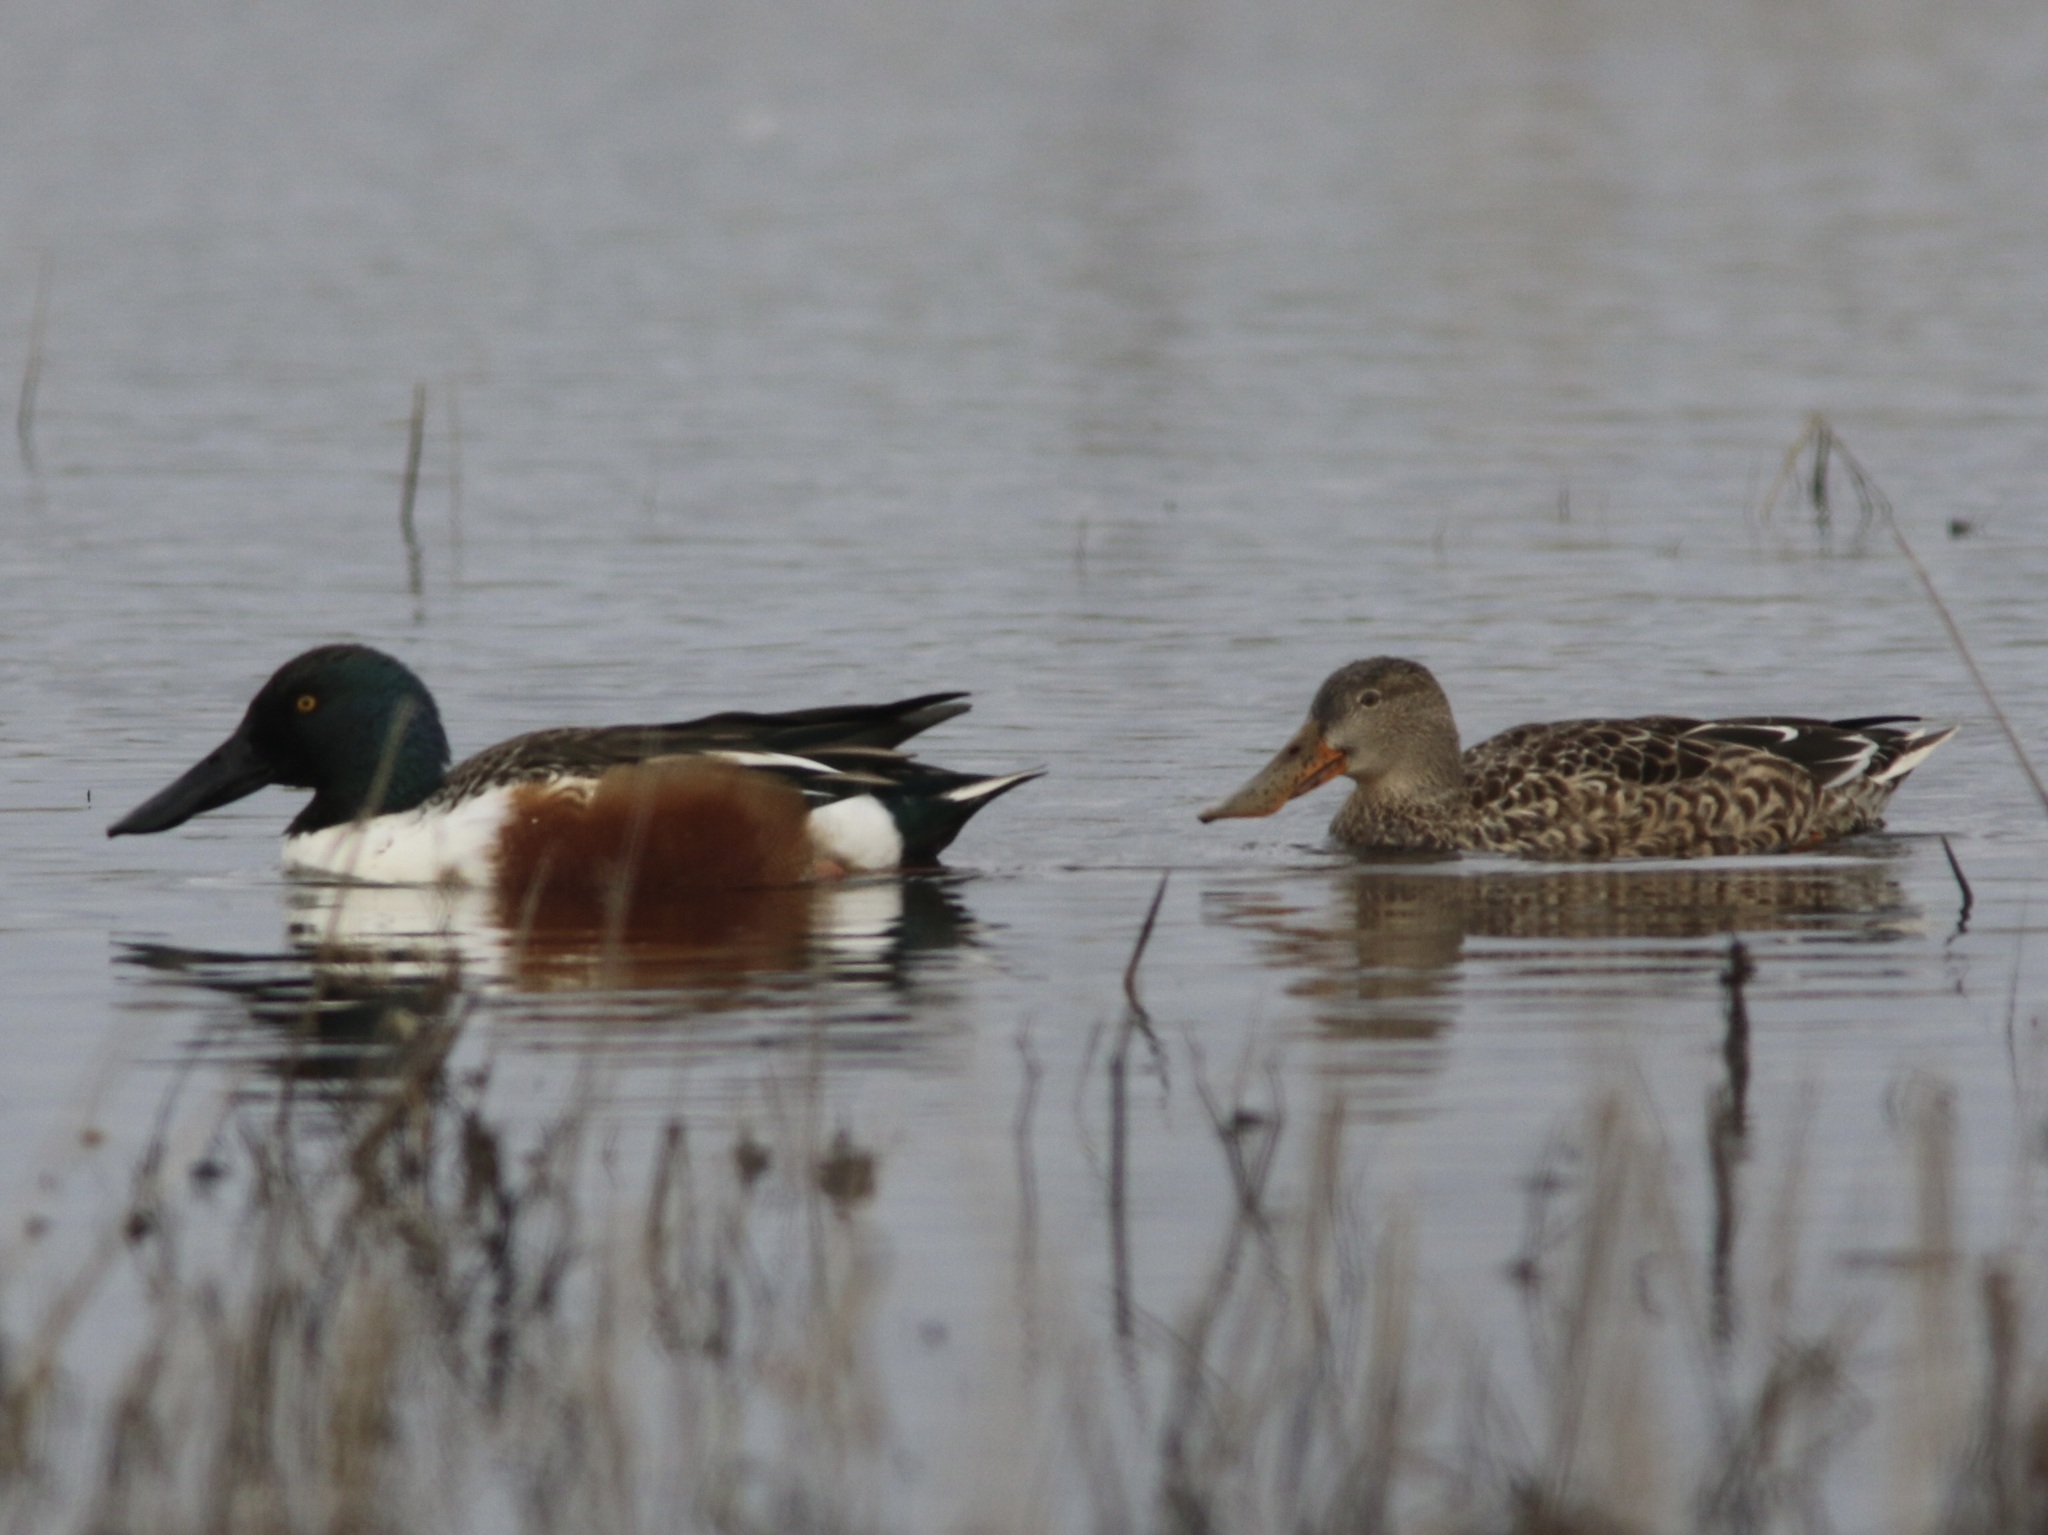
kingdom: Animalia
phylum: Chordata
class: Aves
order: Anseriformes
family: Anatidae
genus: Spatula
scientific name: Spatula clypeata
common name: Northern shoveler
